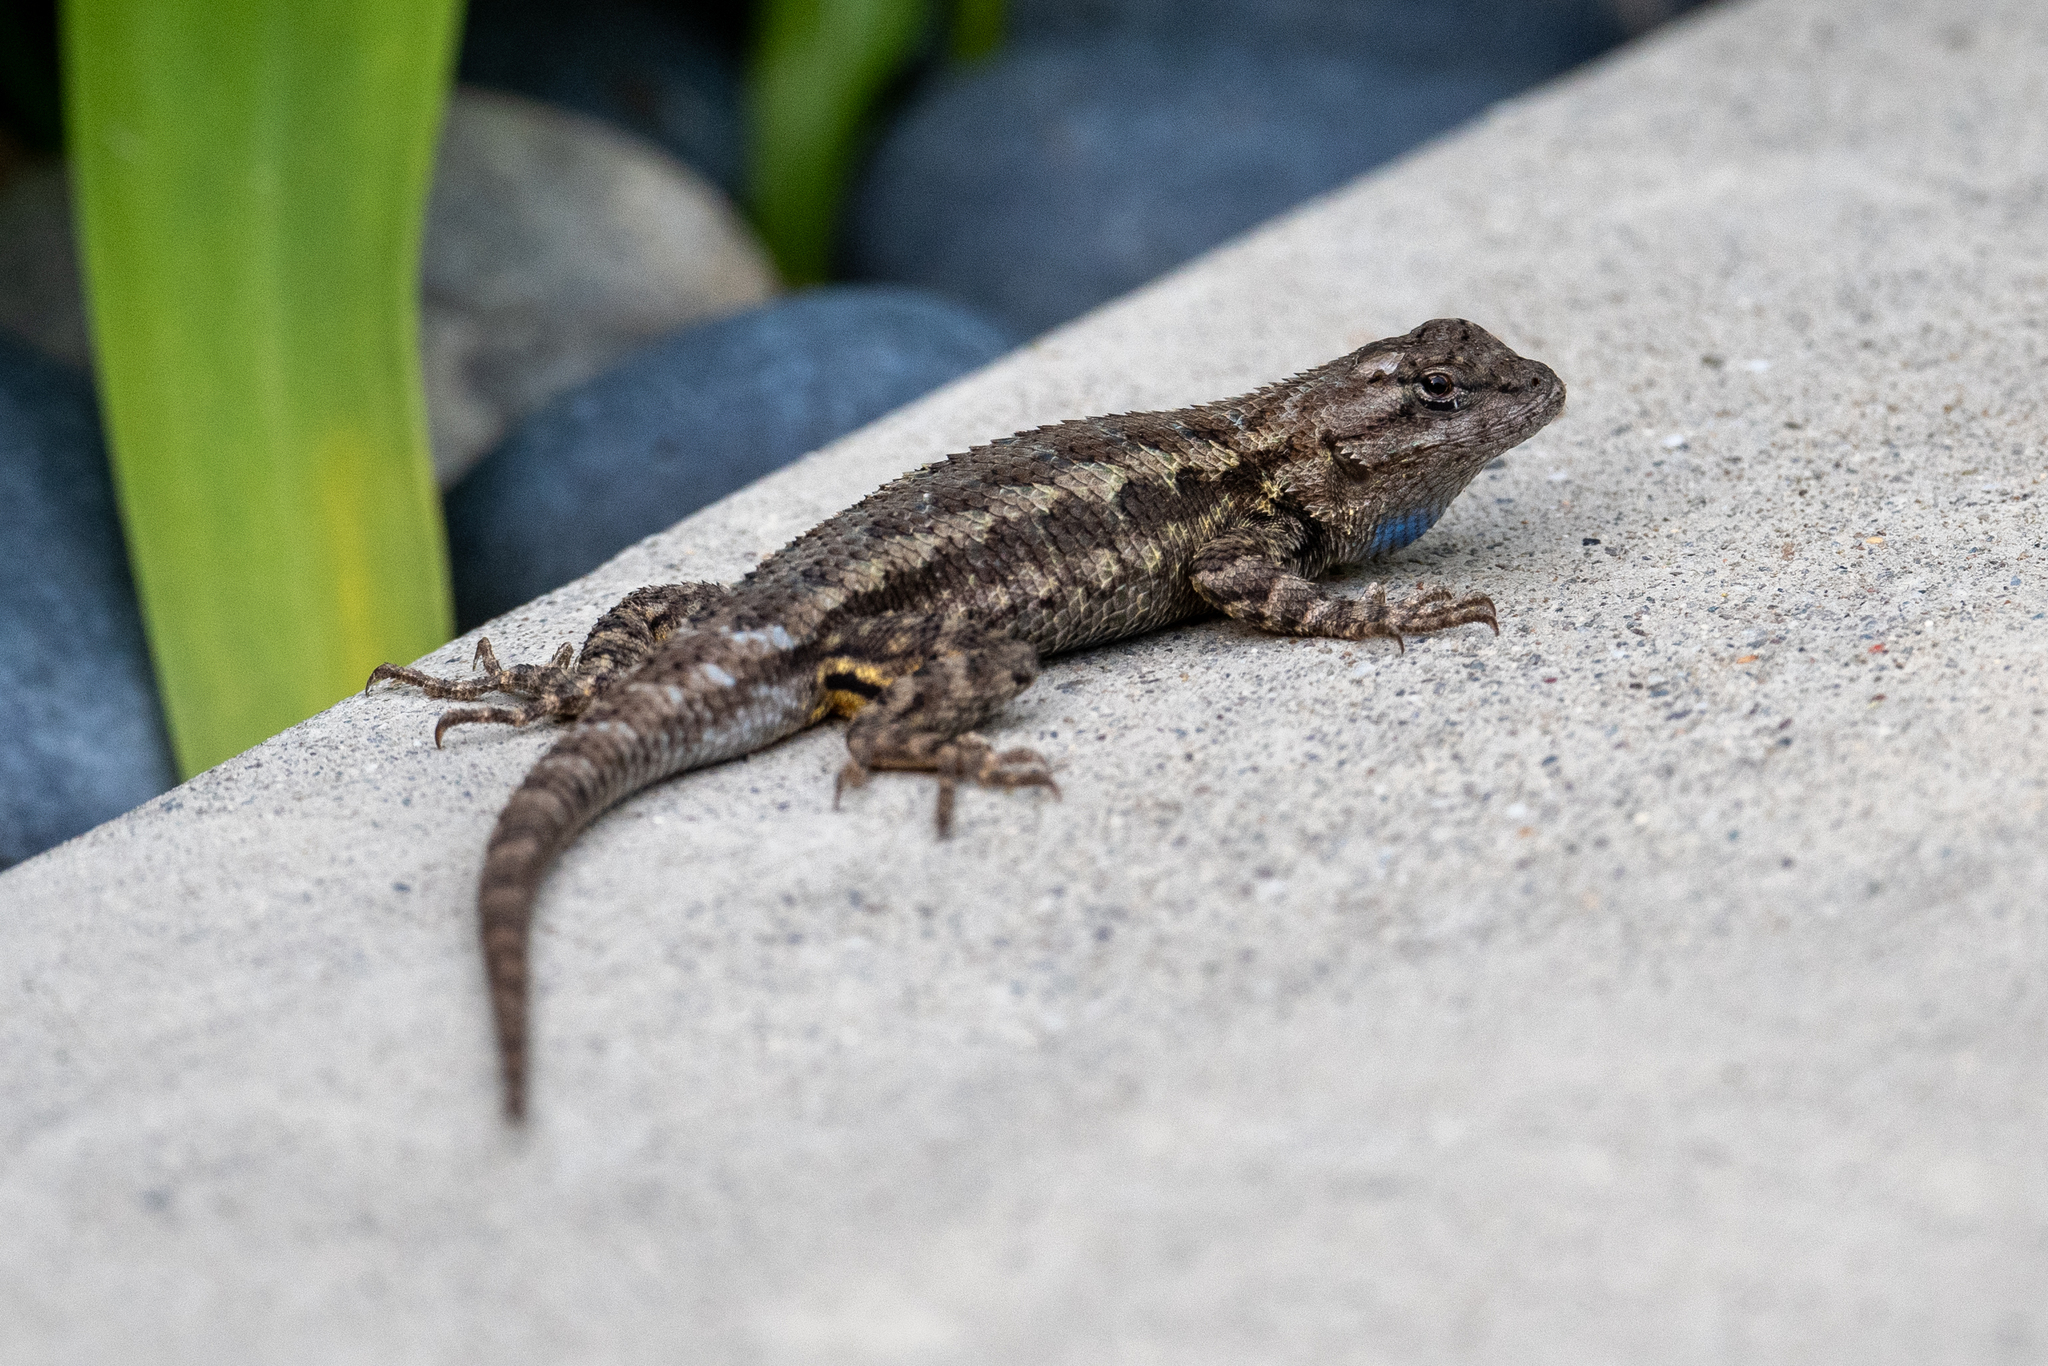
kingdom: Animalia
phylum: Chordata
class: Squamata
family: Phrynosomatidae
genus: Sceloporus
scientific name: Sceloporus occidentalis
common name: Western fence lizard
